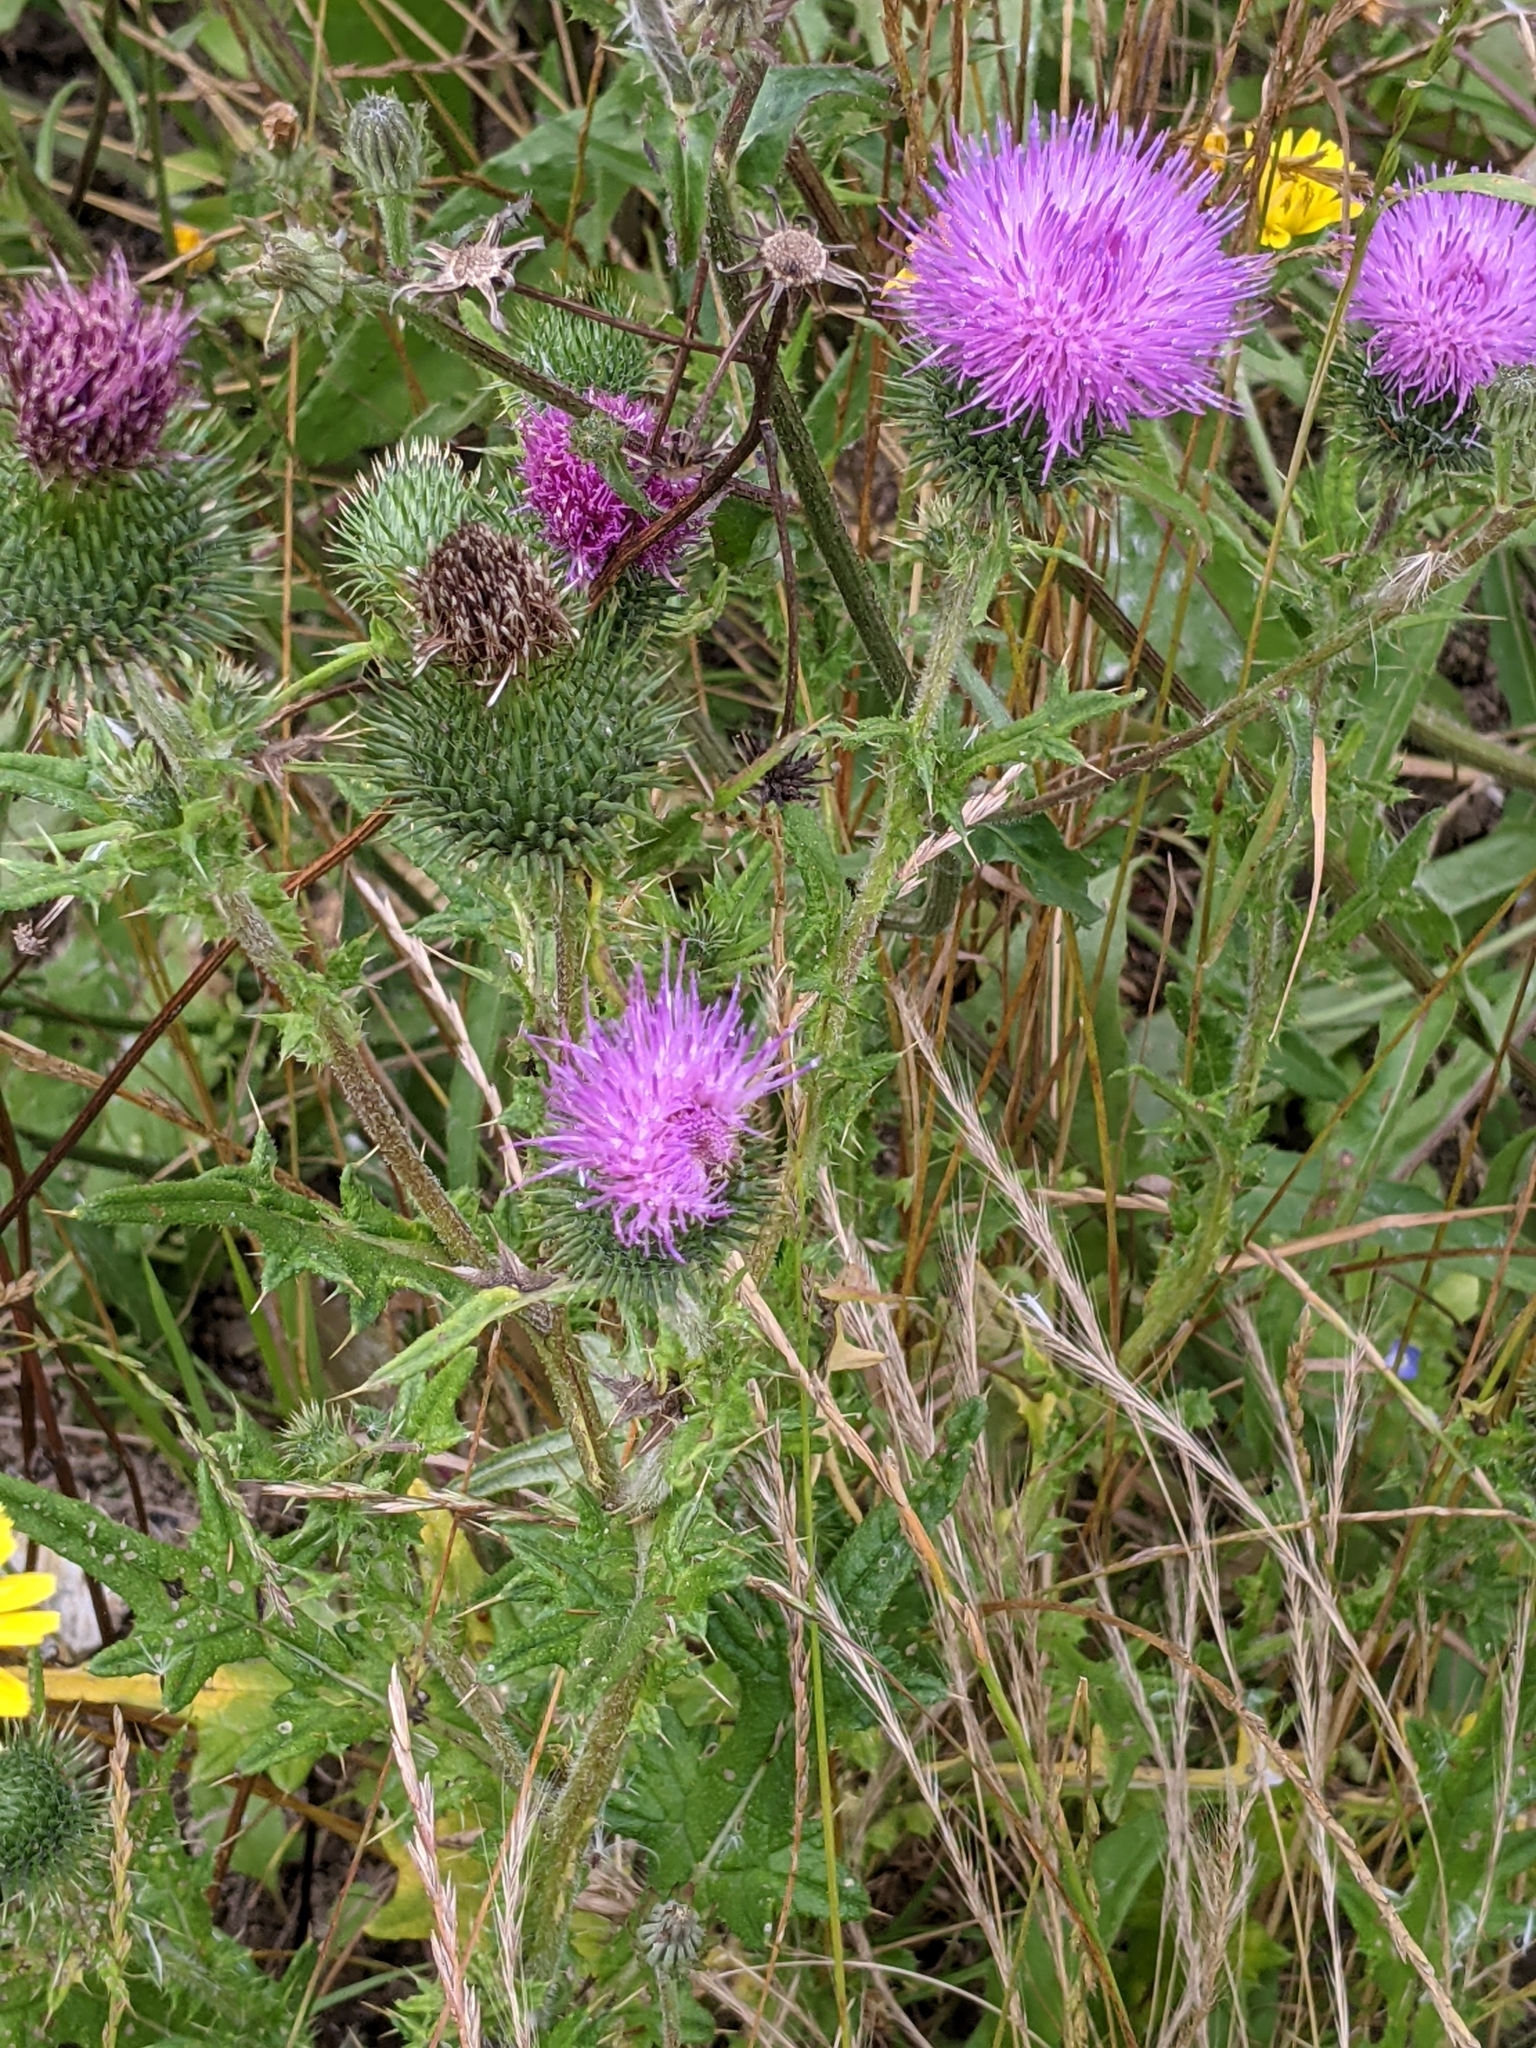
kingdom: Plantae
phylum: Tracheophyta
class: Magnoliopsida
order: Asterales
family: Asteraceae
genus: Cirsium
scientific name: Cirsium vulgare
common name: Bull thistle
